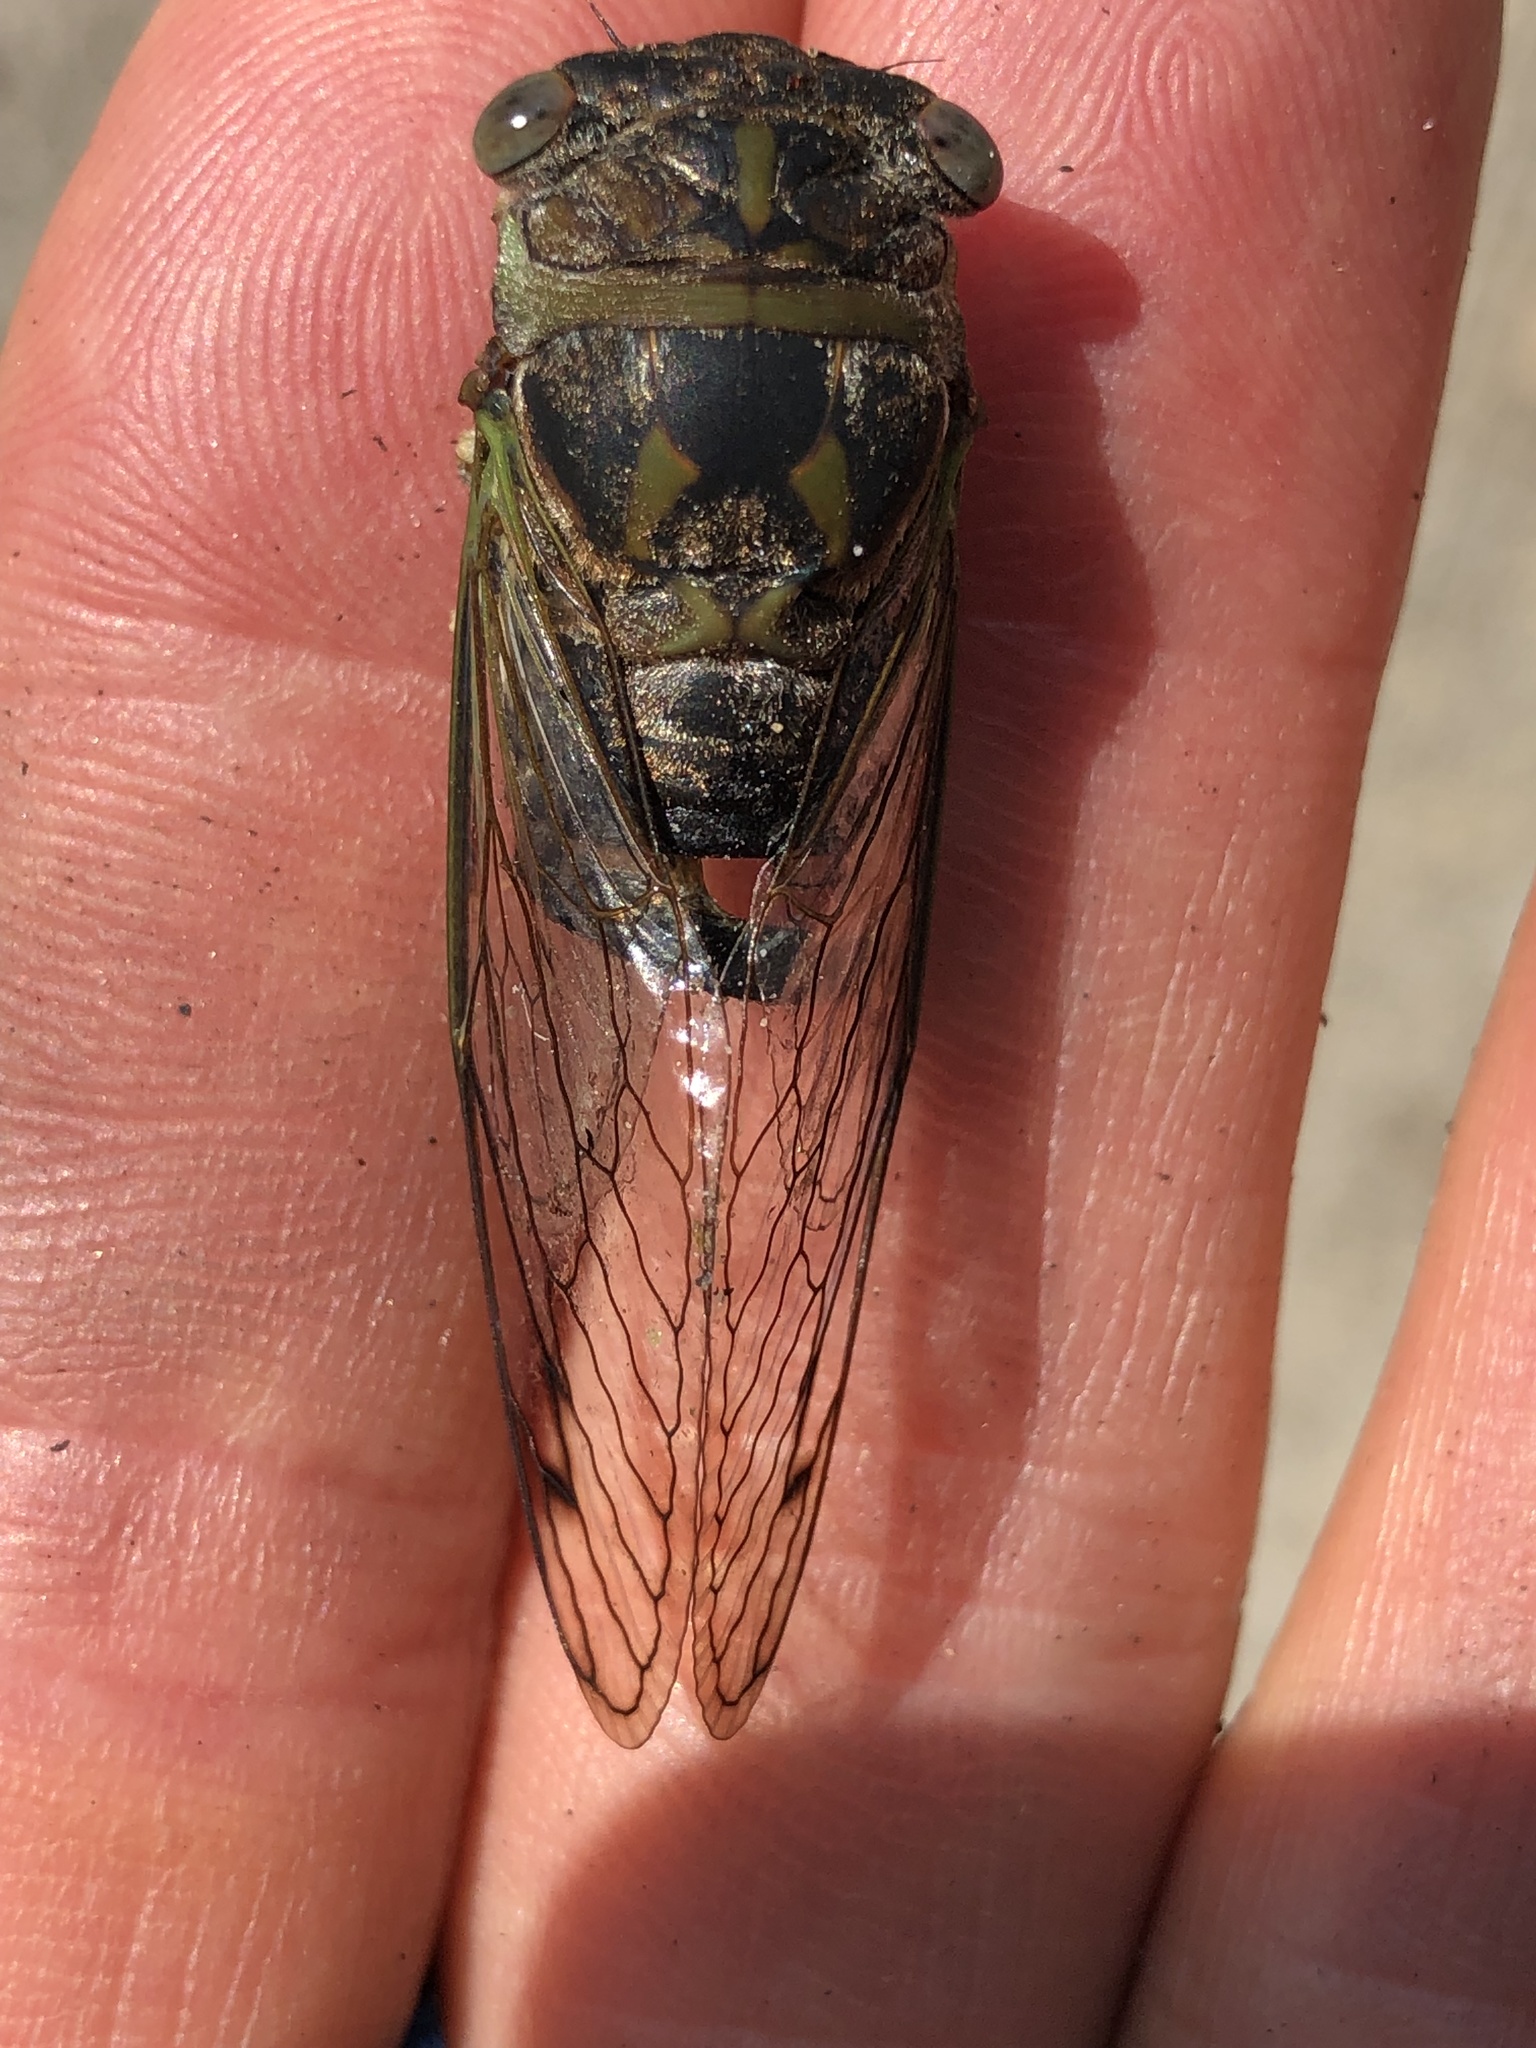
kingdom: Animalia
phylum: Arthropoda
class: Insecta
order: Hemiptera
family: Cicadidae
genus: Neotibicen
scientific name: Neotibicen davisi
